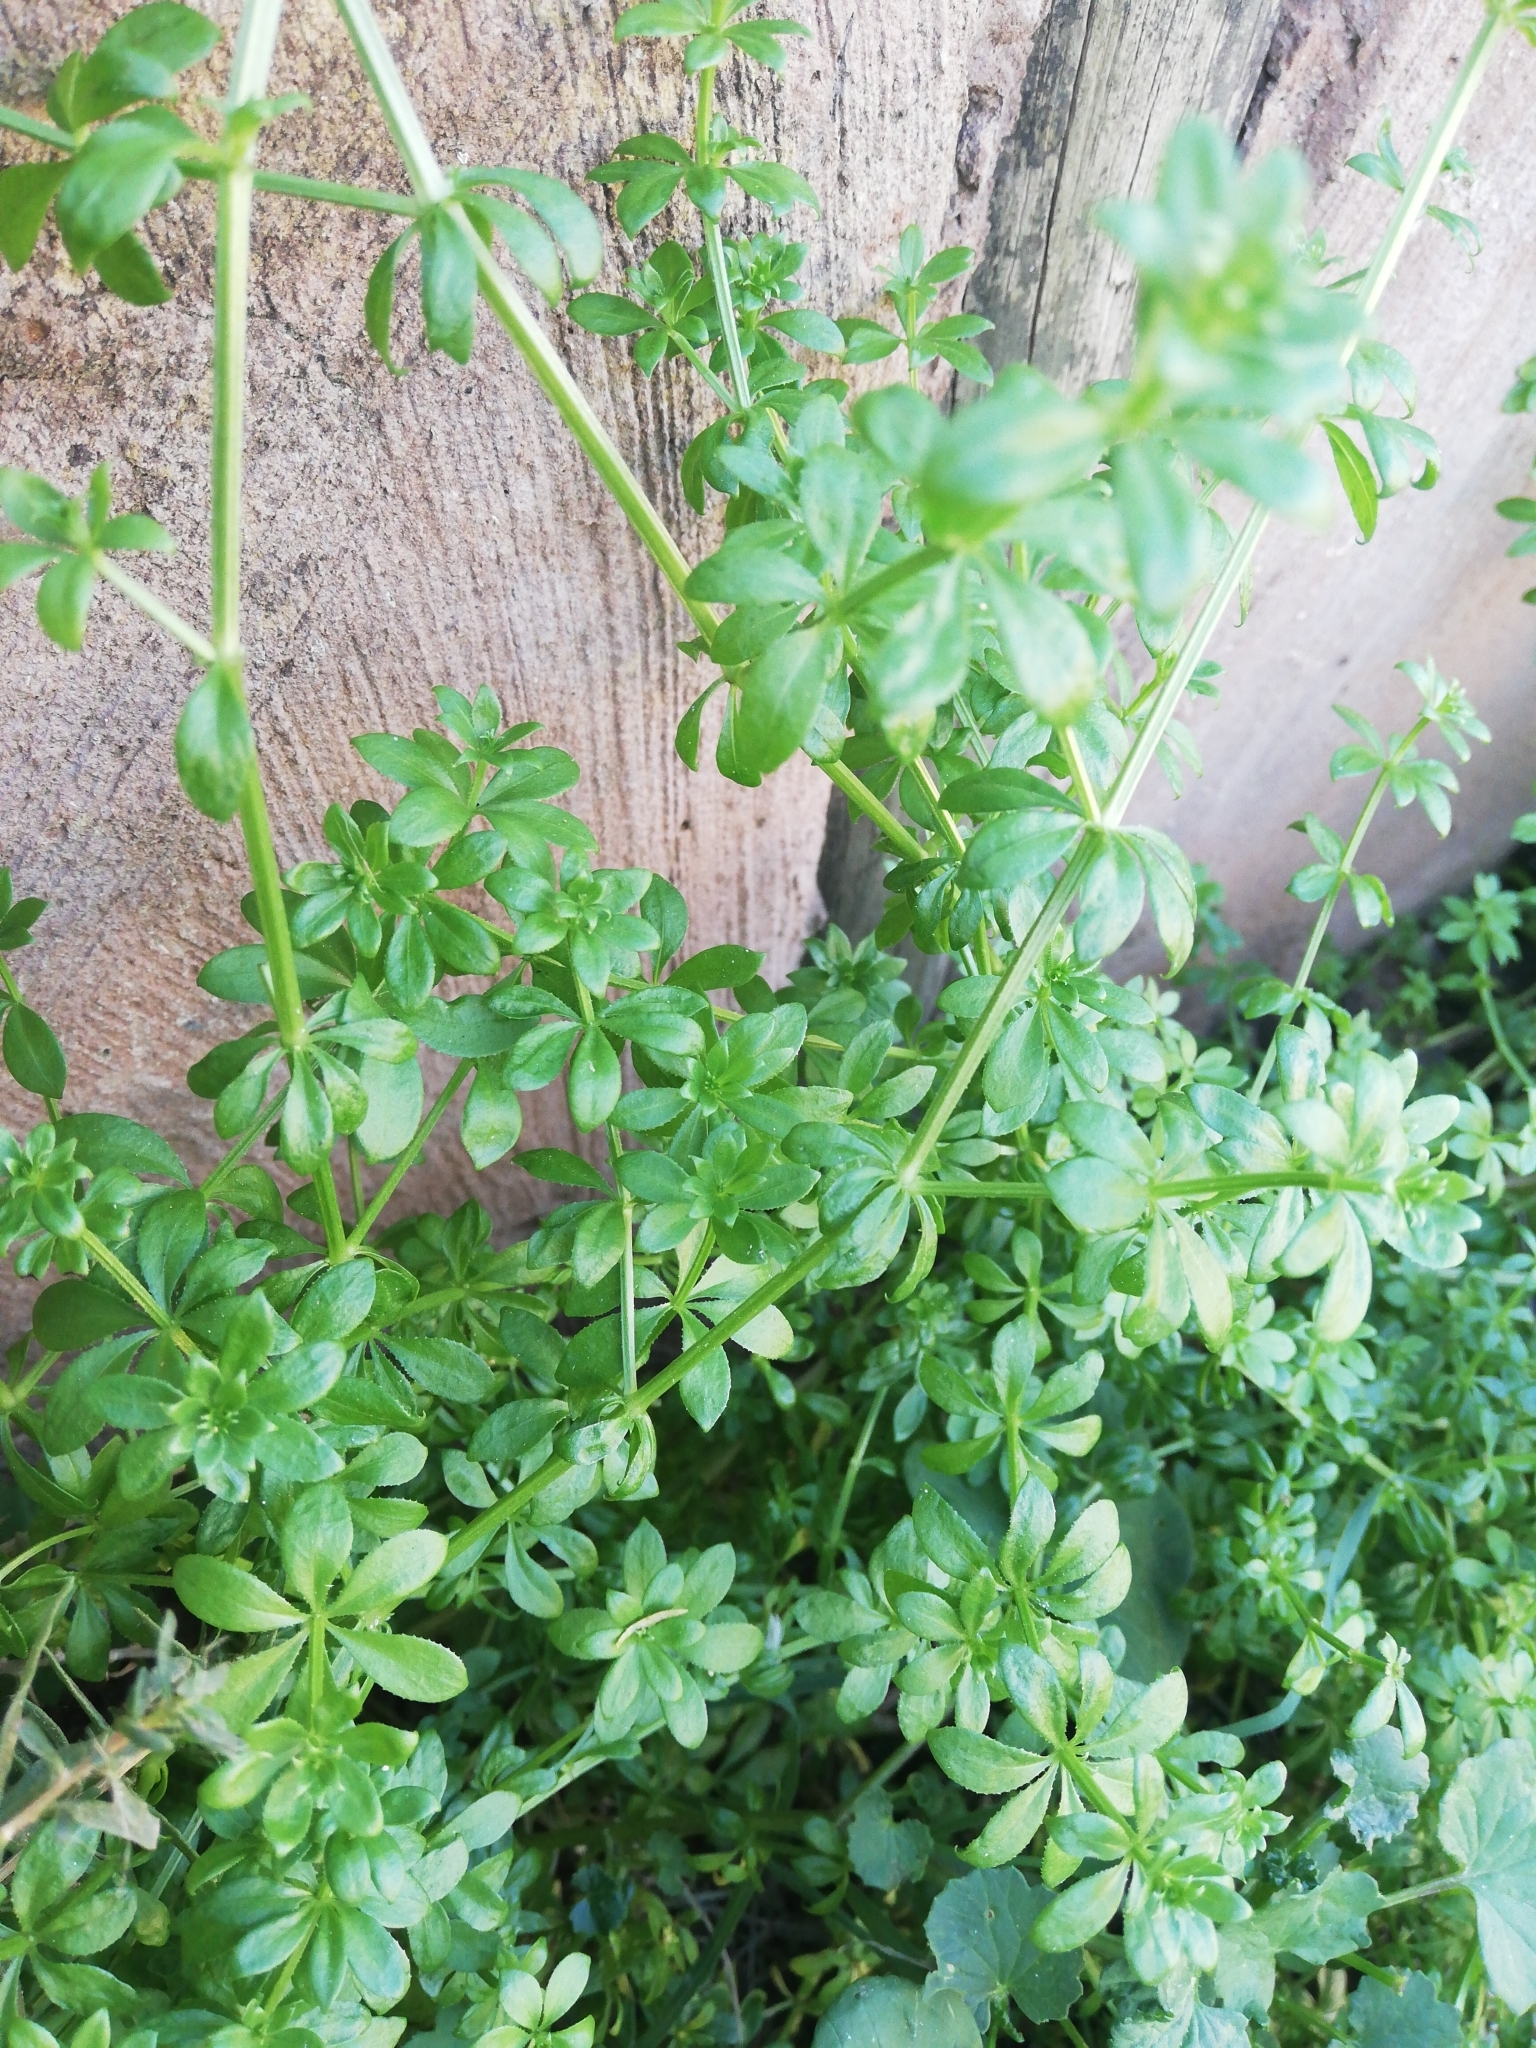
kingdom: Plantae
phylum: Tracheophyta
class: Magnoliopsida
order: Gentianales
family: Rubiaceae
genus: Galium
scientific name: Galium tomentosum
